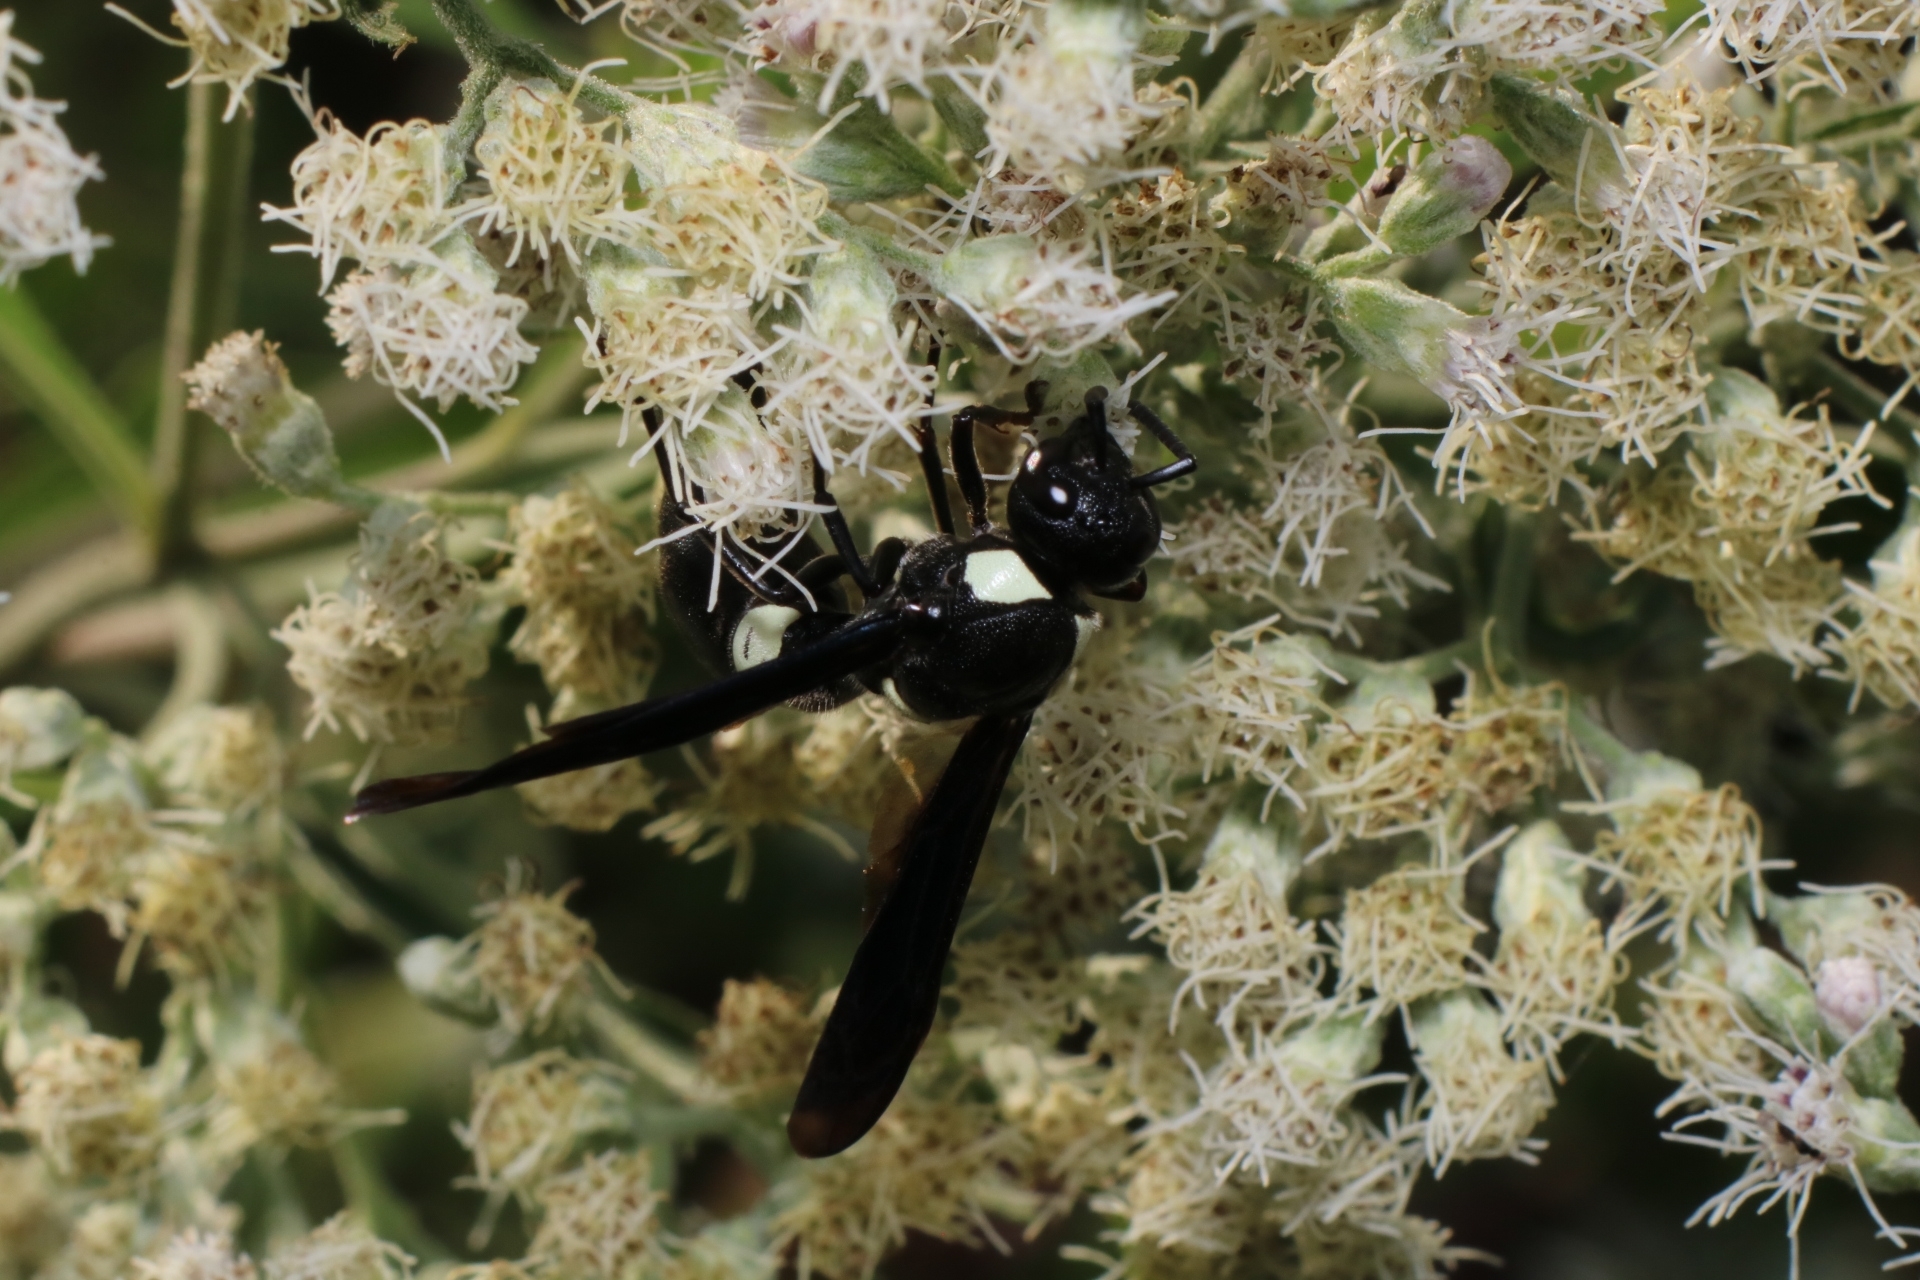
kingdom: Animalia
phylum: Arthropoda
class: Insecta
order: Hymenoptera
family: Eumenidae
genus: Monobia
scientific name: Monobia quadridens
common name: Four-toothed mason wasp
